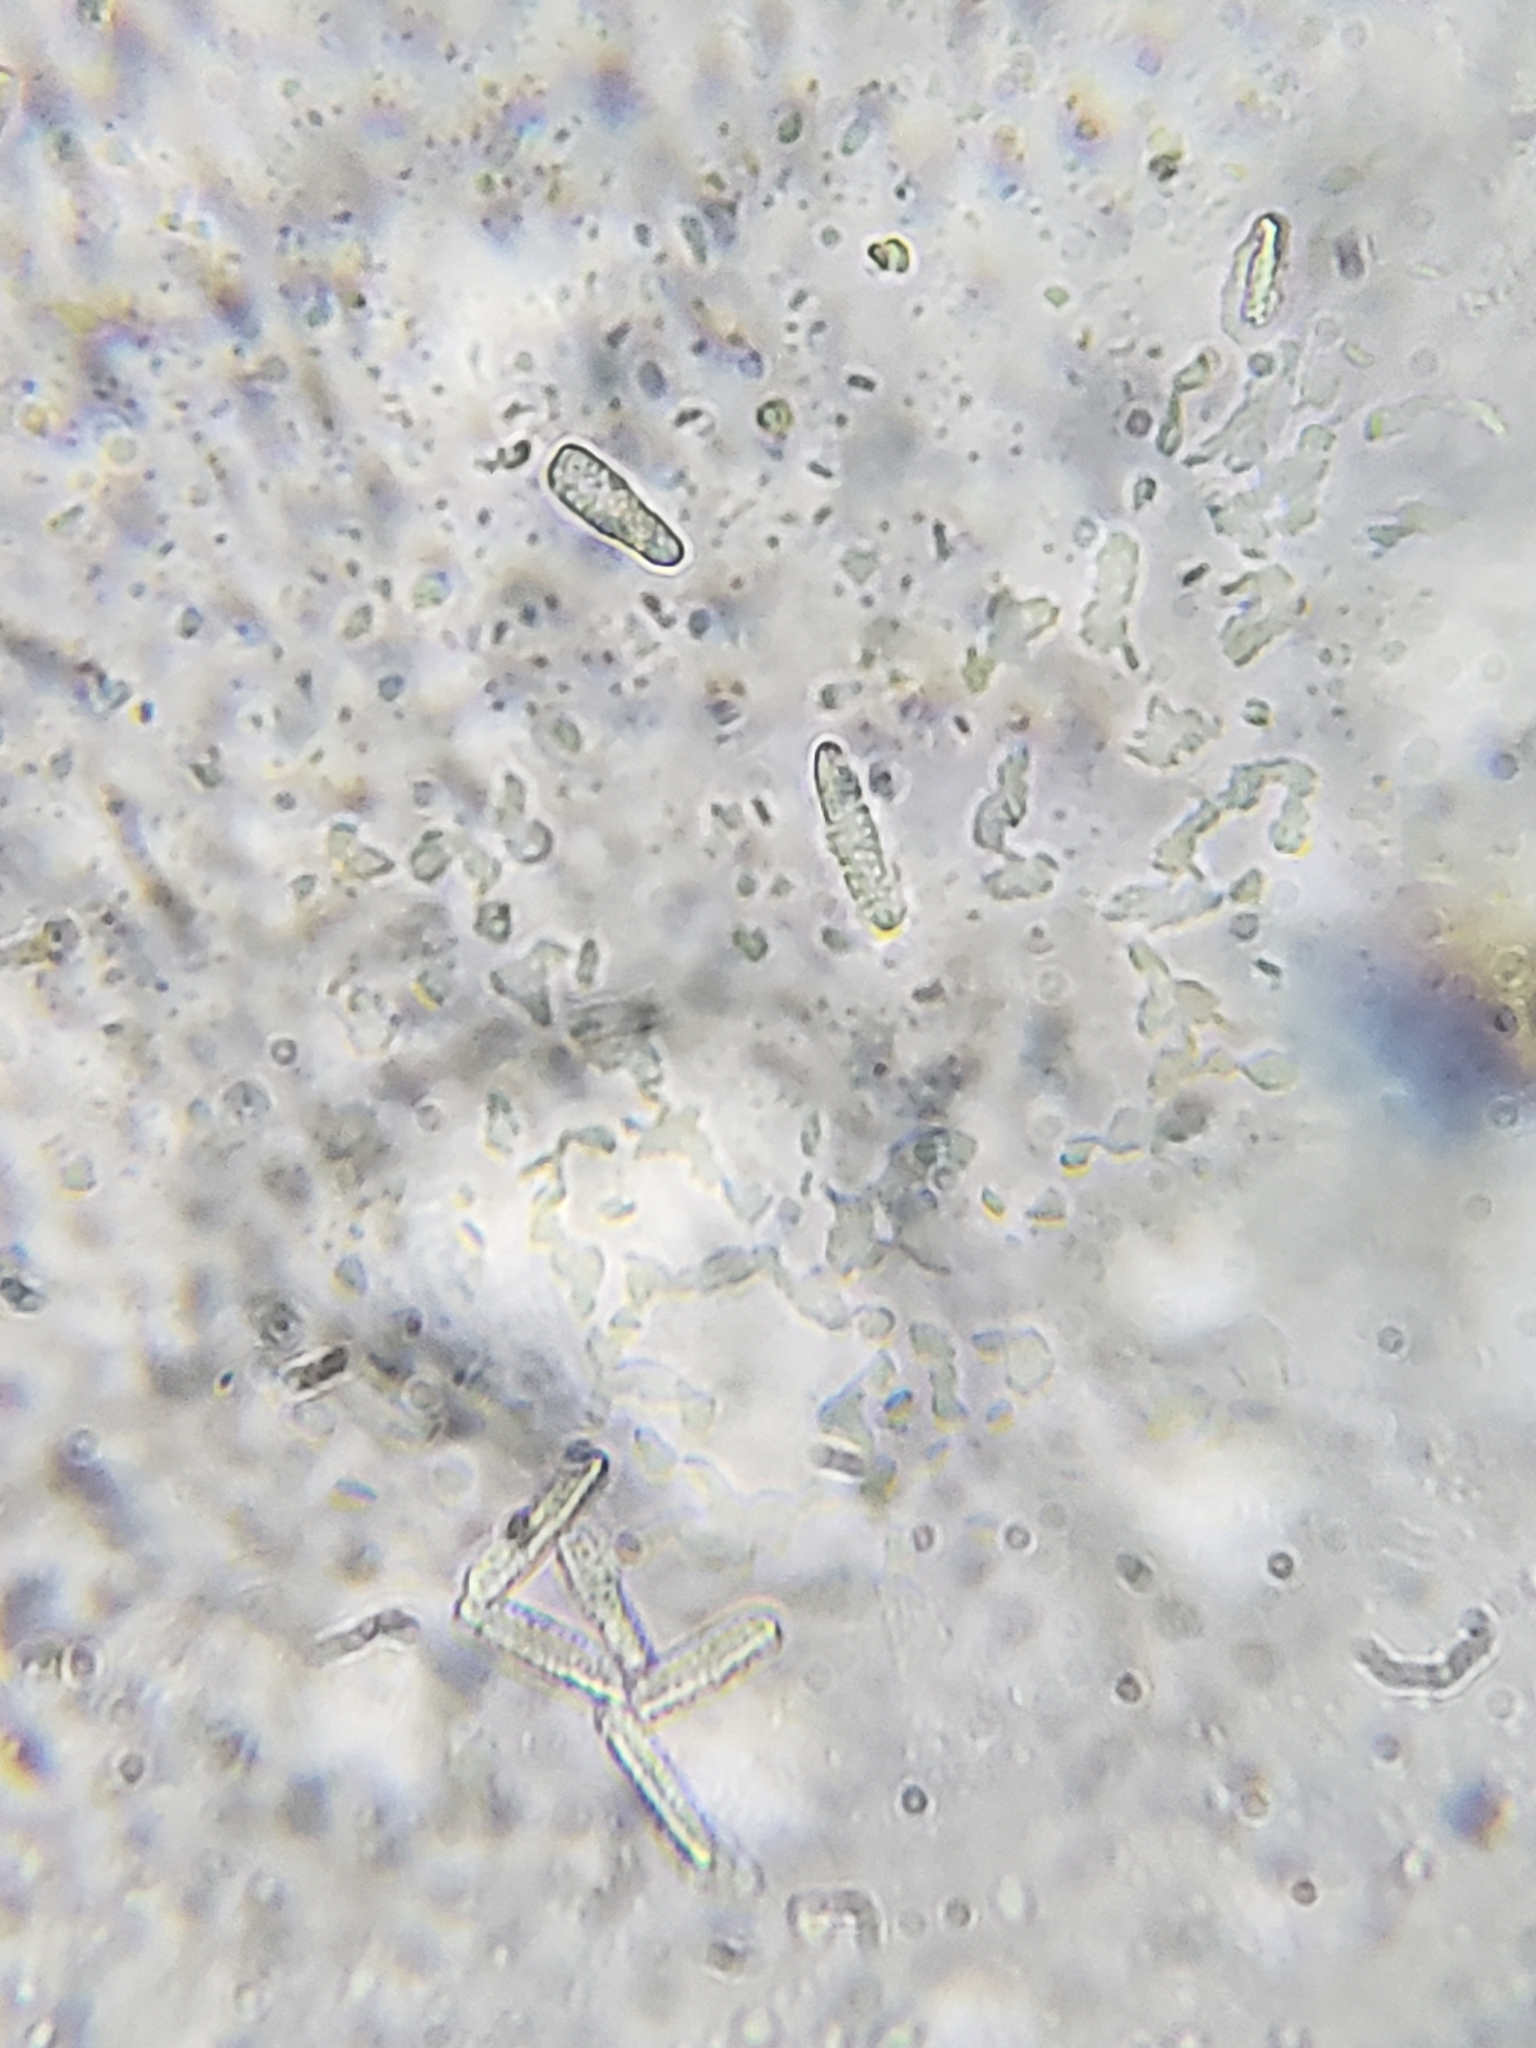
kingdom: Animalia
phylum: Arthropoda
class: Insecta
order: Hemiptera
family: Cicadellidae
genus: Oncometopia
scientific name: Oncometopia orbona
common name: Broad-headed sharpshooter
